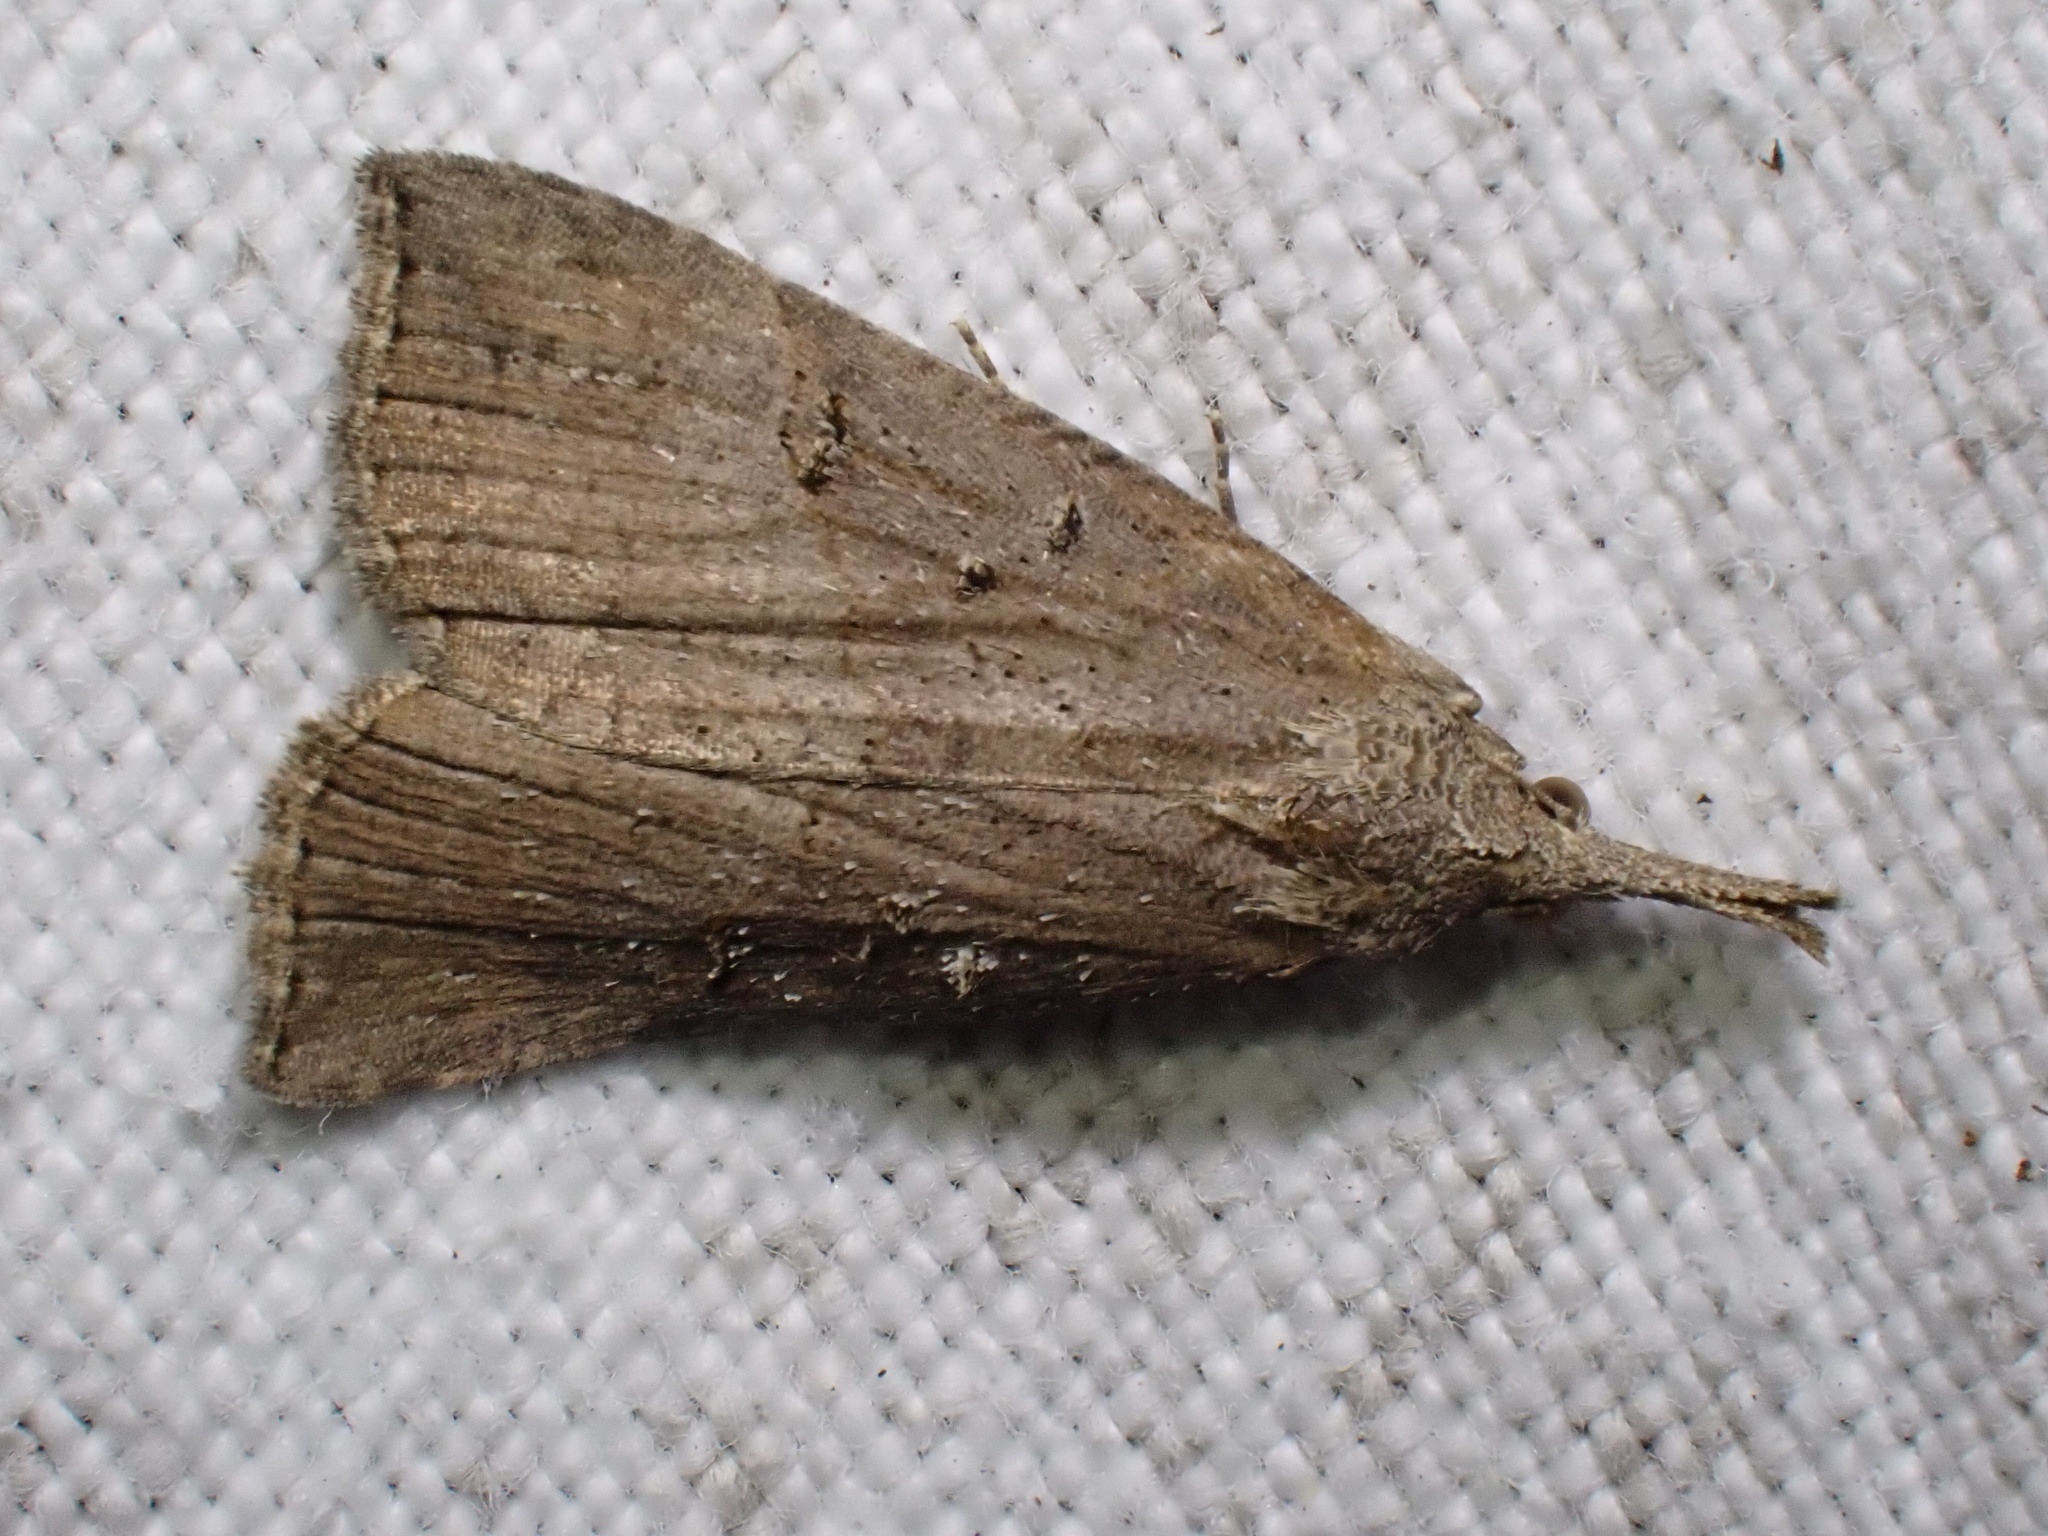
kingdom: Animalia
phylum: Arthropoda
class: Insecta
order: Lepidoptera
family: Erebidae
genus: Hypena
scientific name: Hypena rostralis
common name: Buttoned snout
